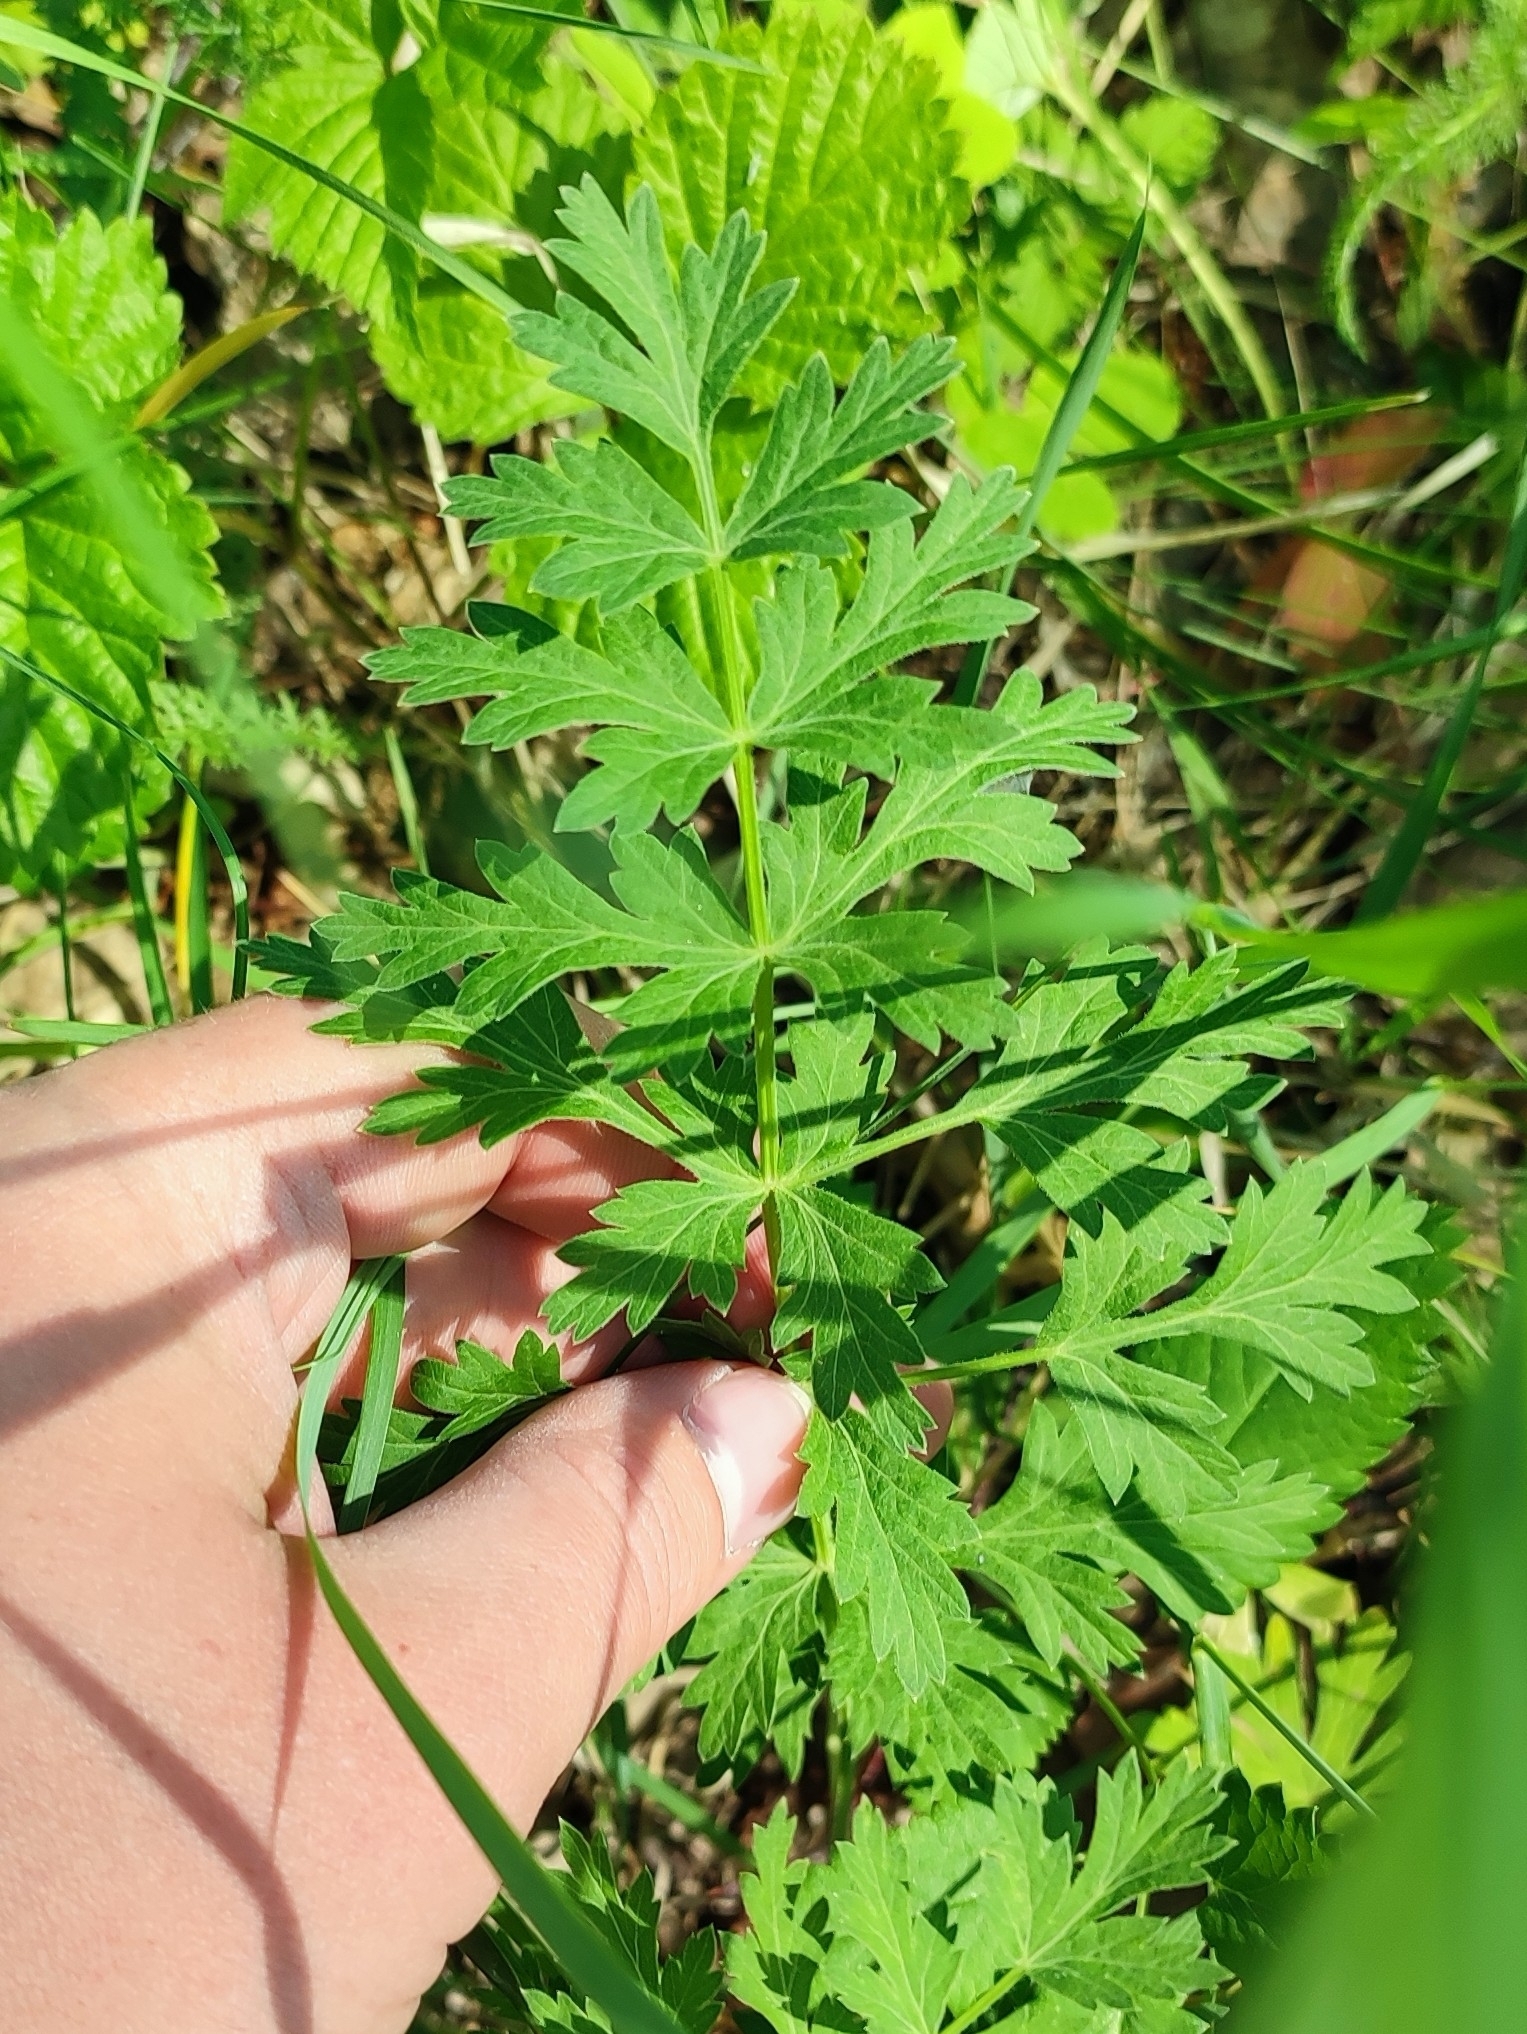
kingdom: Plantae
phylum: Tracheophyta
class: Magnoliopsida
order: Apiales
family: Apiaceae
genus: Seseli
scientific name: Seseli libanotis
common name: Mooncarrot
